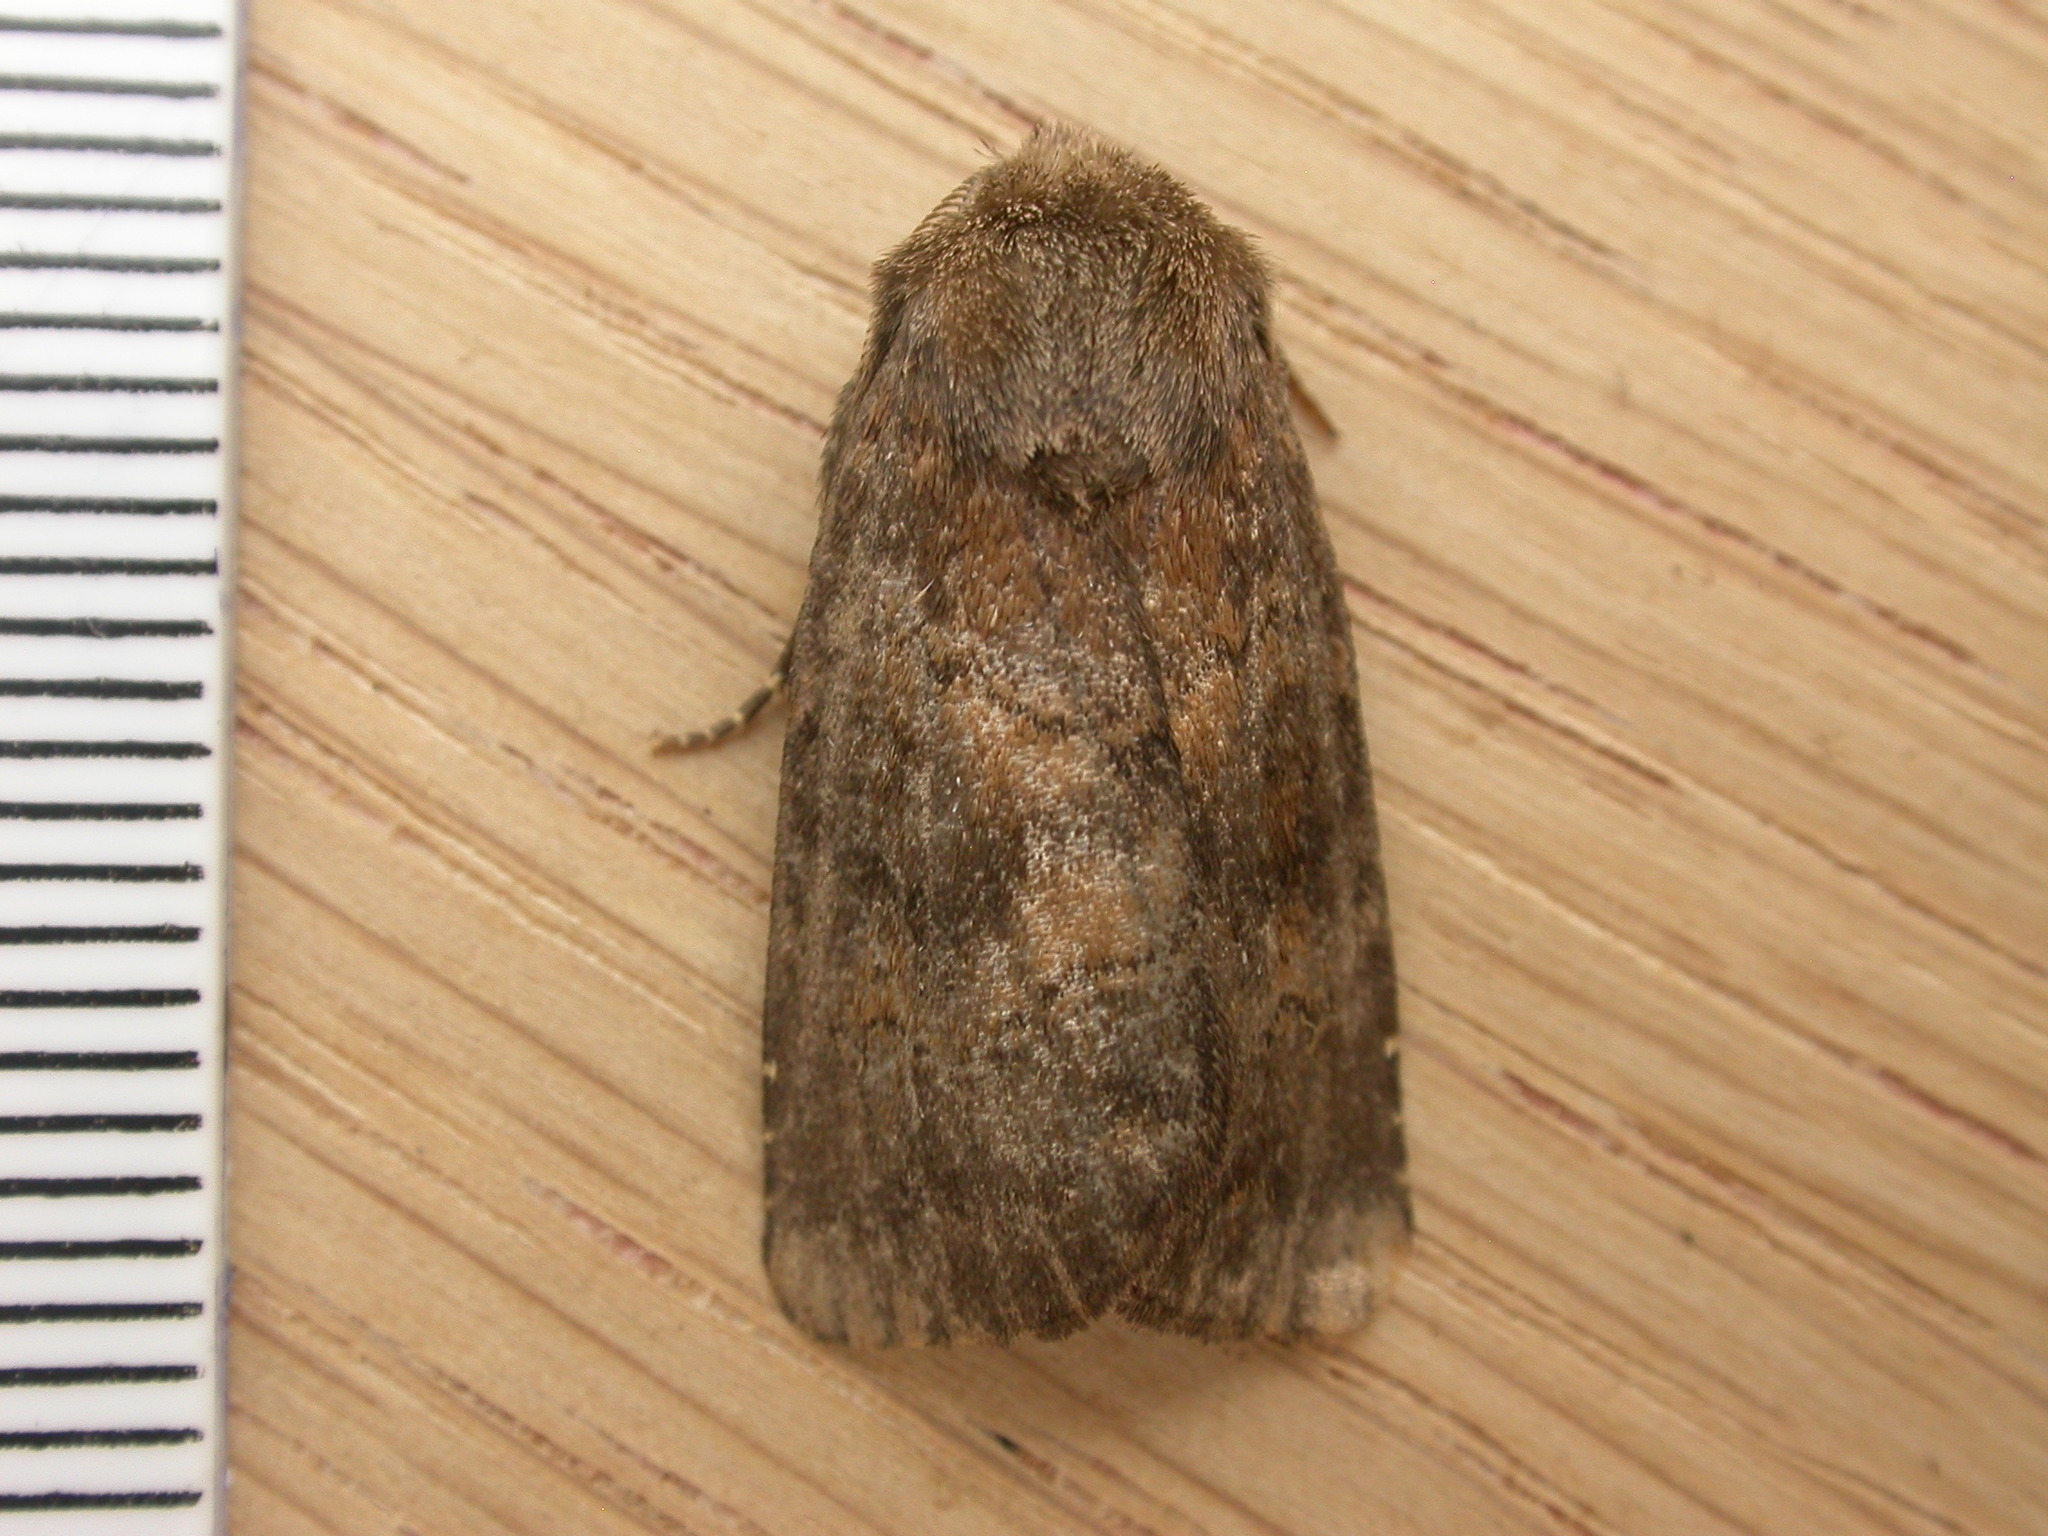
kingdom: Animalia
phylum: Arthropoda
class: Insecta
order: Lepidoptera
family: Noctuidae
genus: Charanyca
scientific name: Charanyca ferruginea
